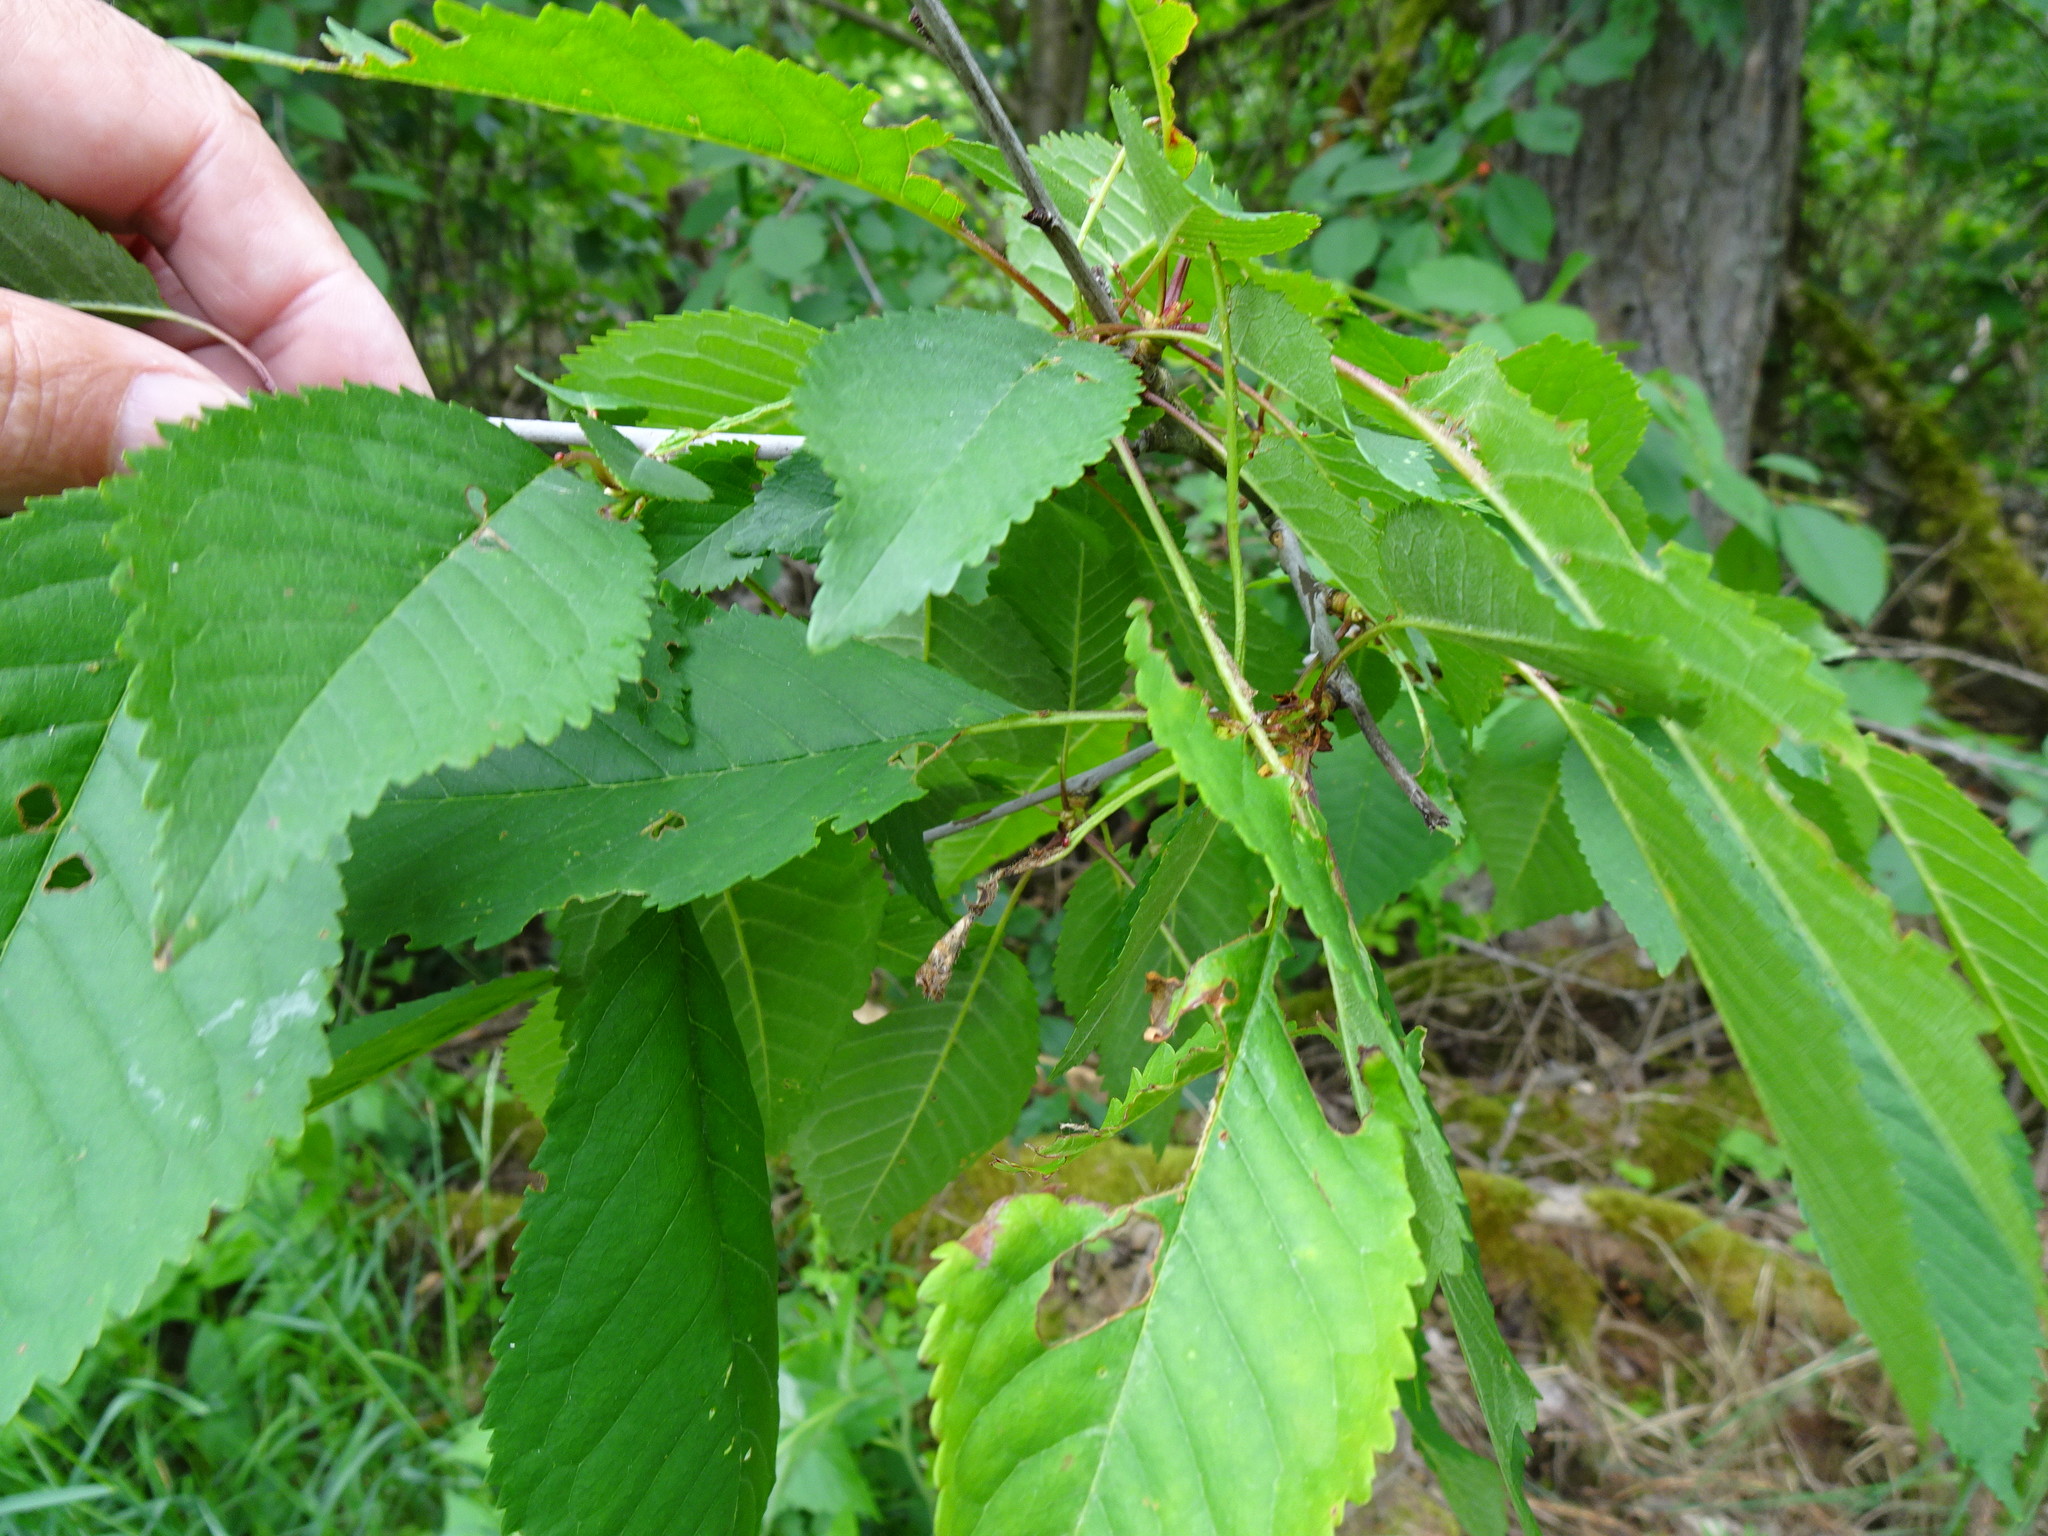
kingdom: Plantae
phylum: Tracheophyta
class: Magnoliopsida
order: Rosales
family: Rosaceae
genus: Prunus
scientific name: Prunus avium
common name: Sweet cherry
